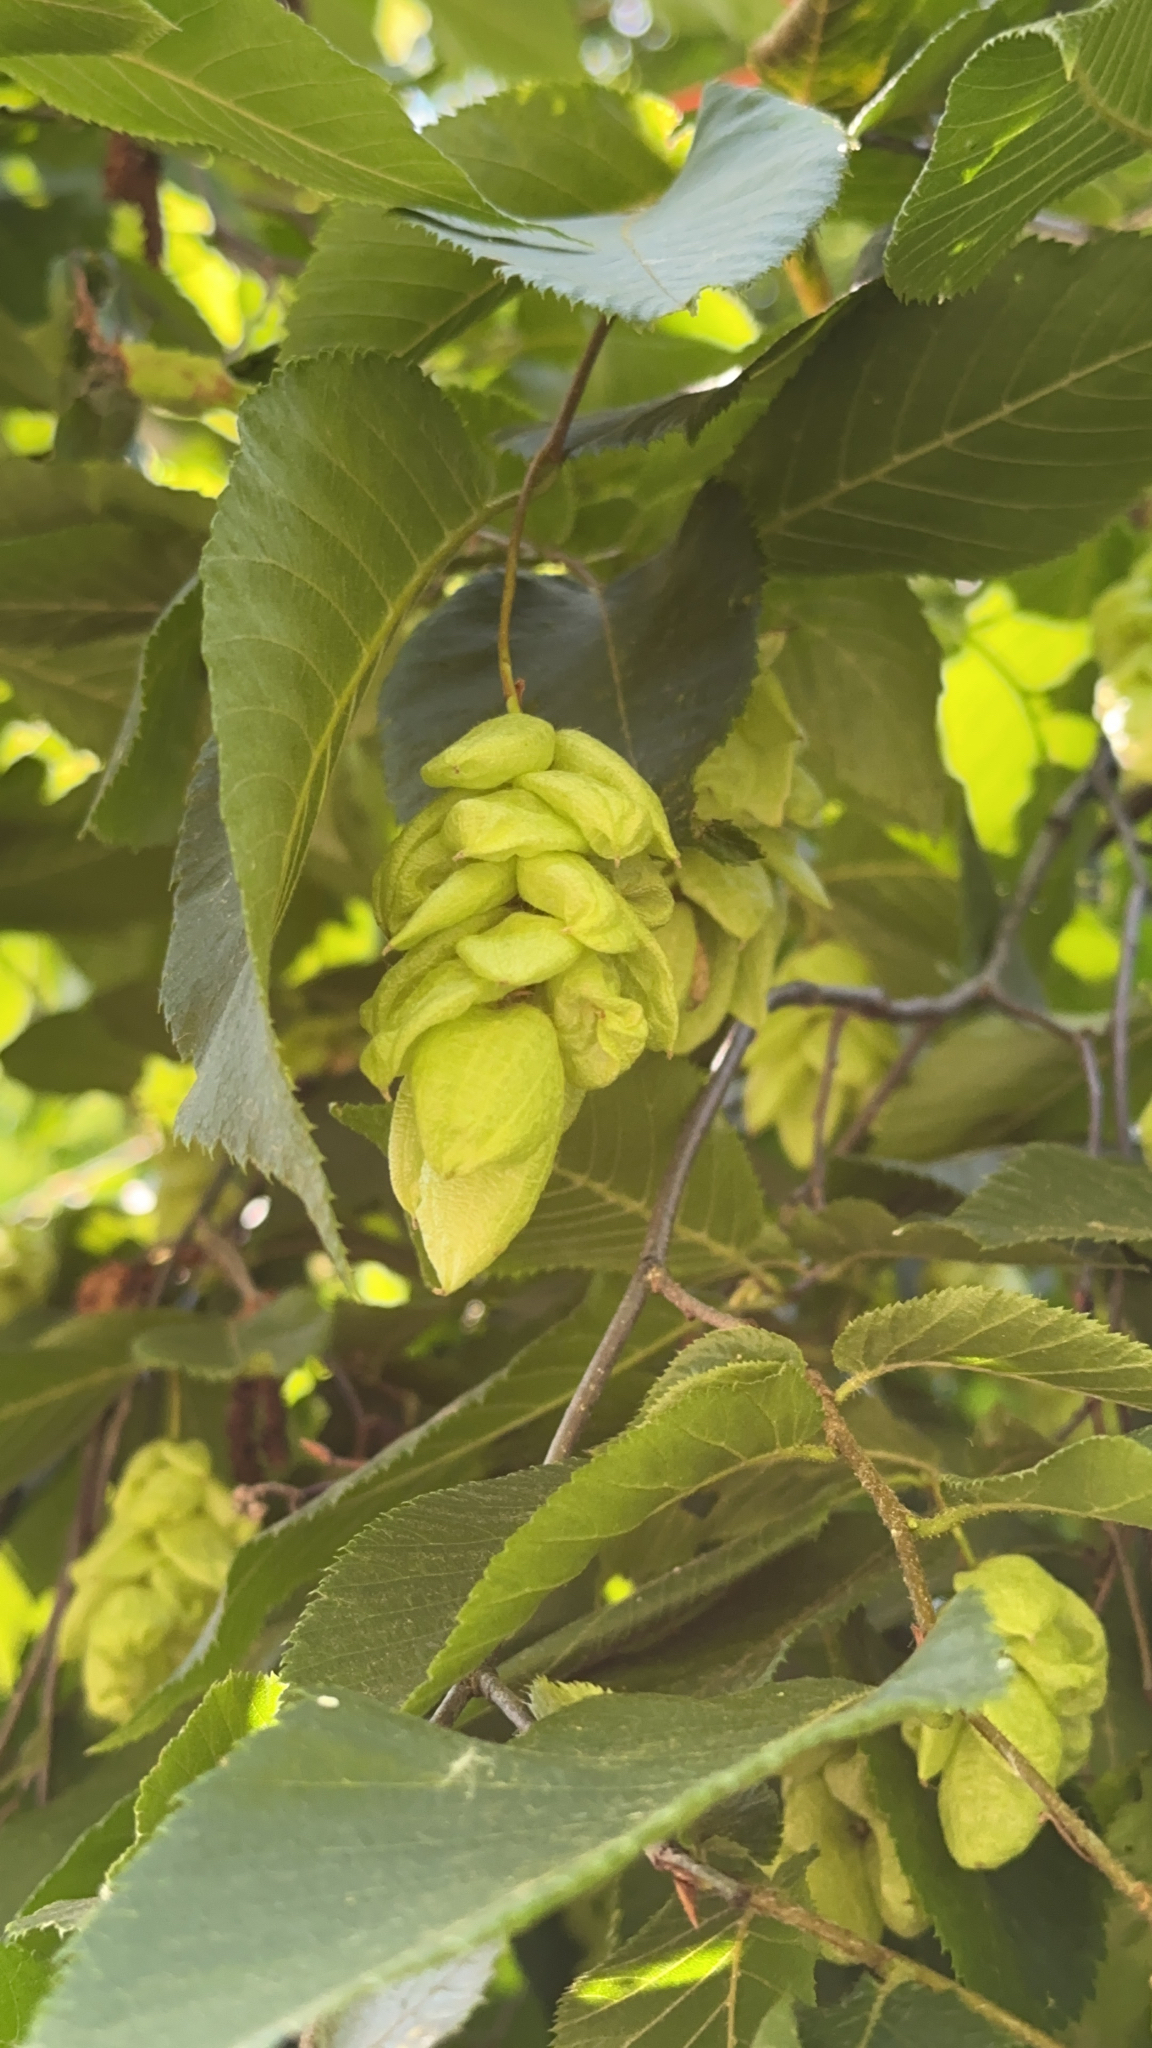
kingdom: Plantae
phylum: Tracheophyta
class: Magnoliopsida
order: Fagales
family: Betulaceae
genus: Ostrya
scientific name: Ostrya virginiana
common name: Ironwood
